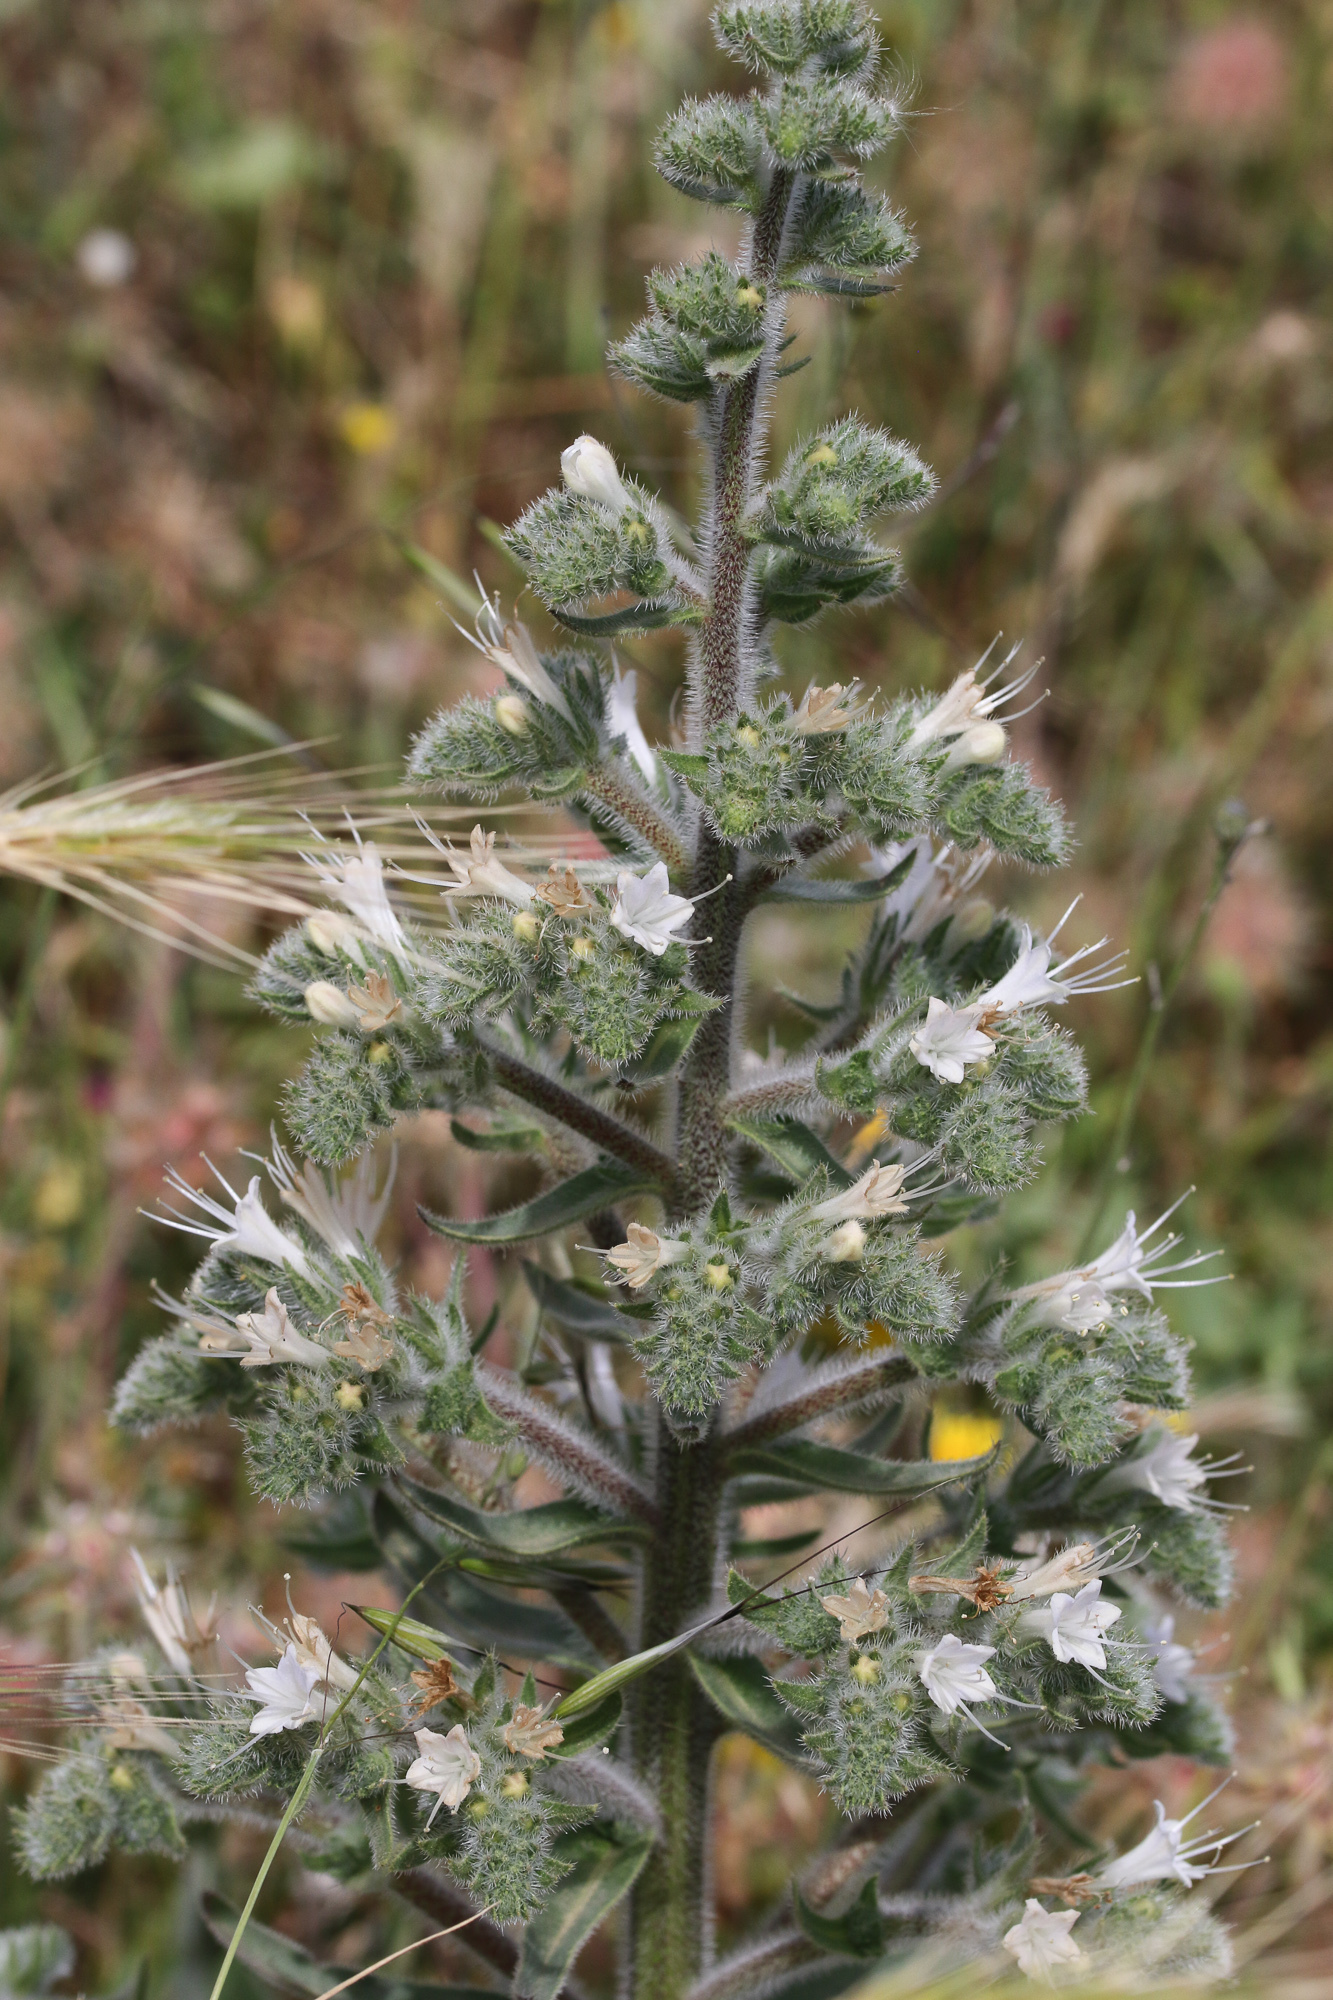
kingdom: Plantae
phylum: Tracheophyta
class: Magnoliopsida
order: Boraginales
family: Boraginaceae
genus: Echium
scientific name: Echium italicum
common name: Italian viper's bugloss
